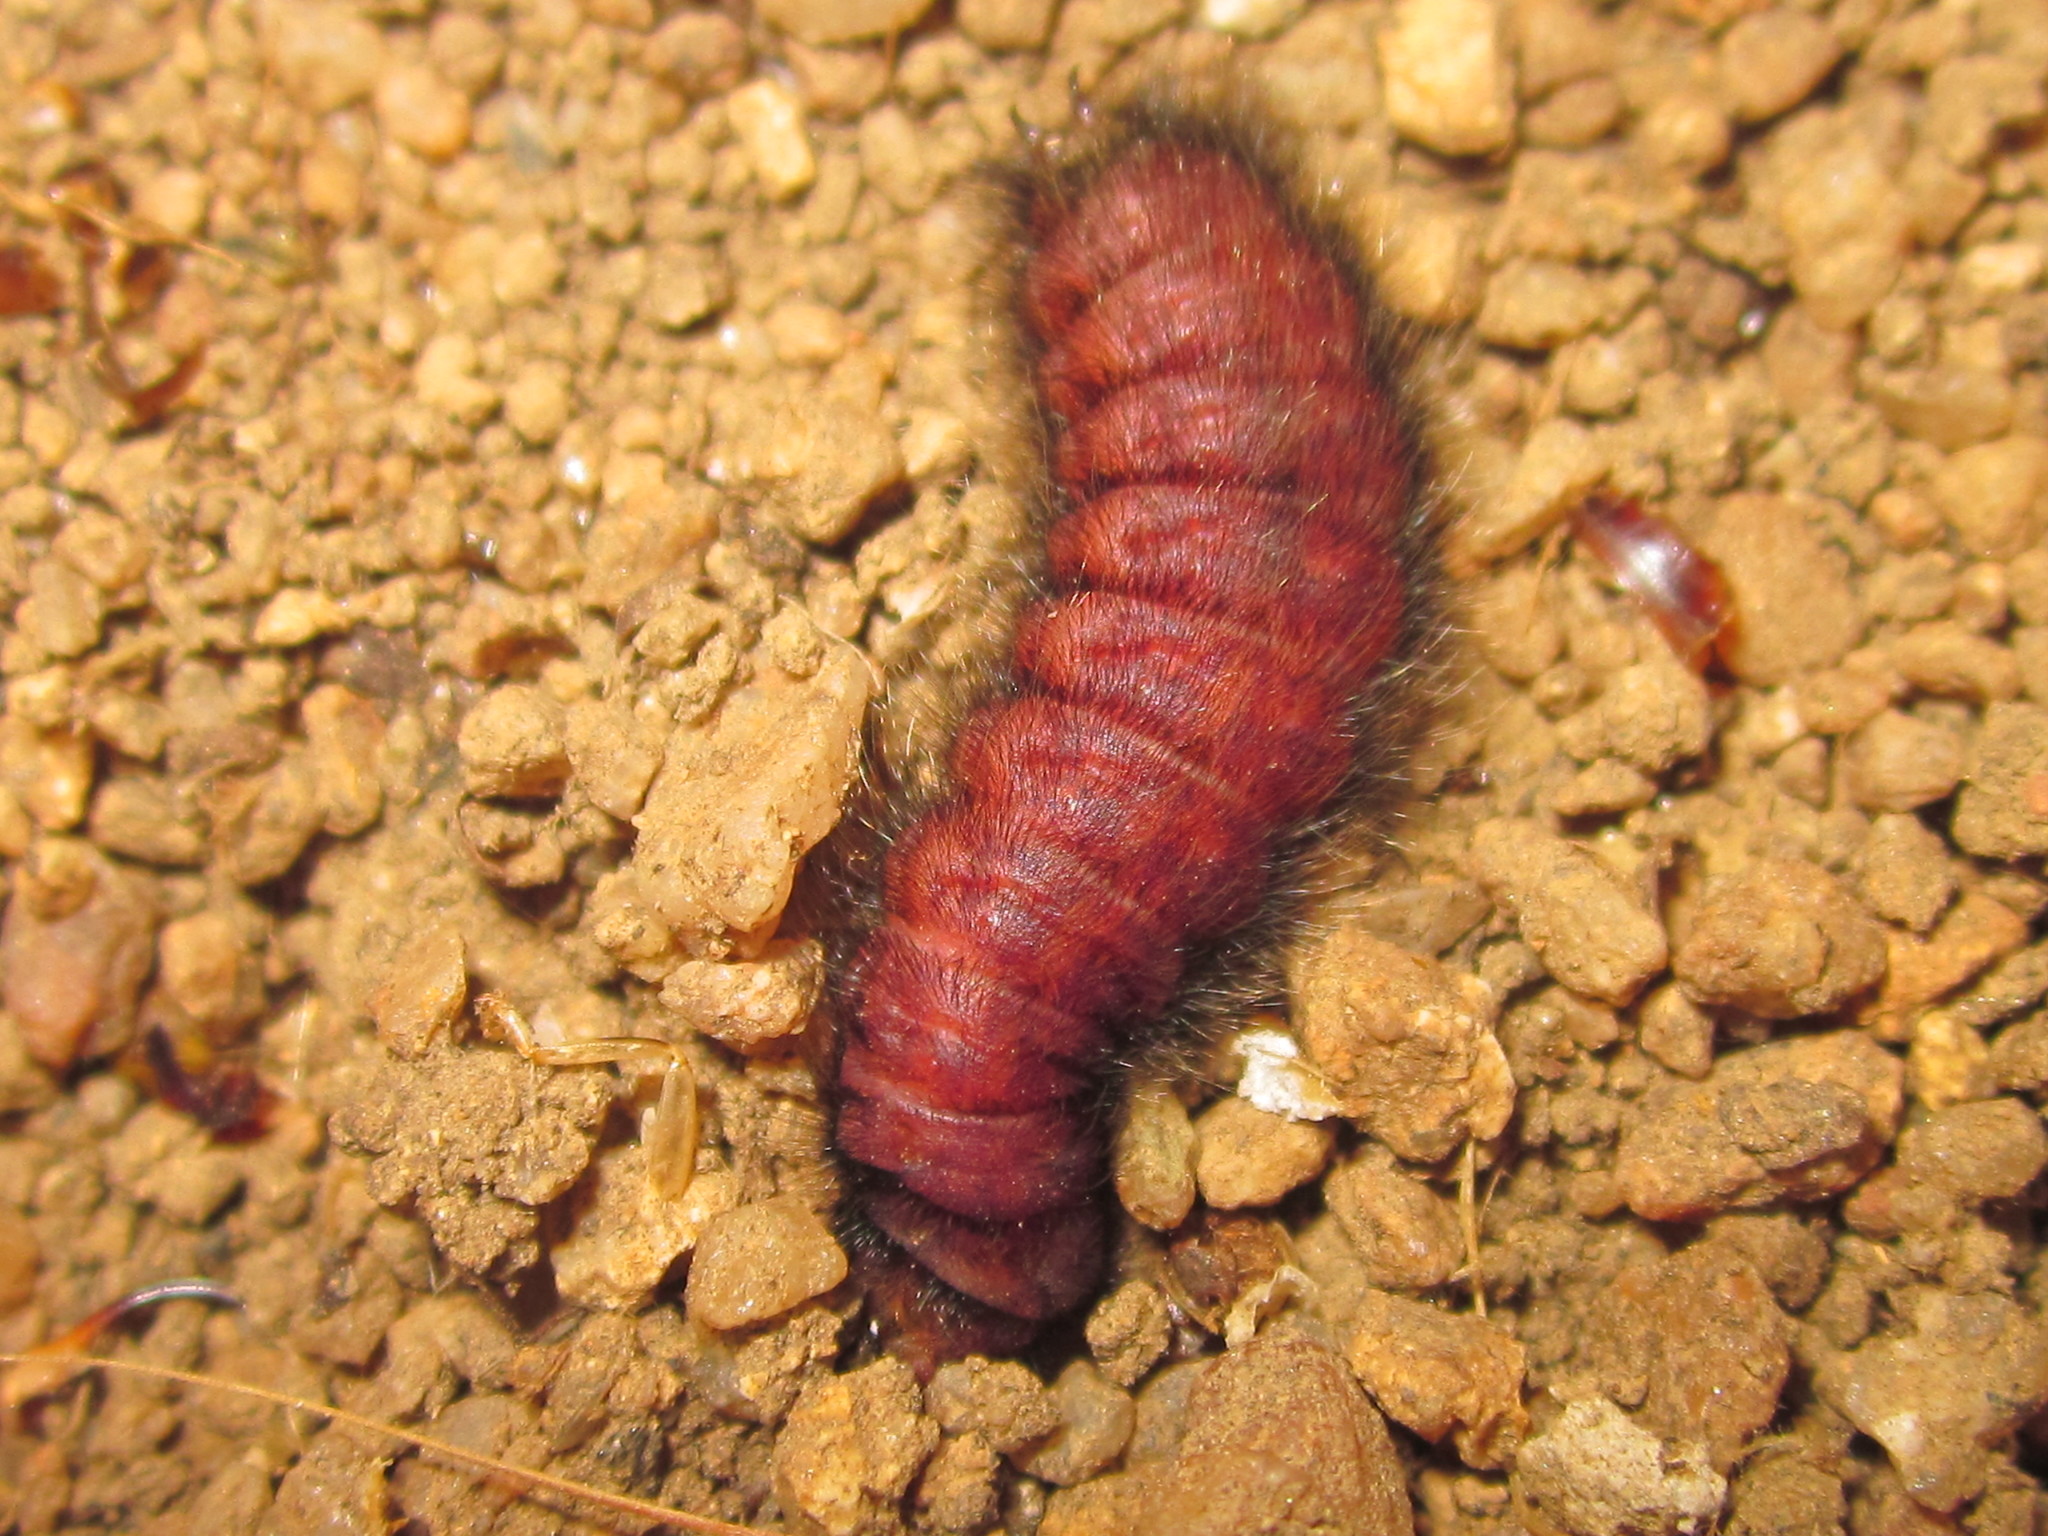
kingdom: Animalia
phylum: Arthropoda
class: Insecta
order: Coleoptera
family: Melyridae
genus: Astylus
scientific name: Astylus
